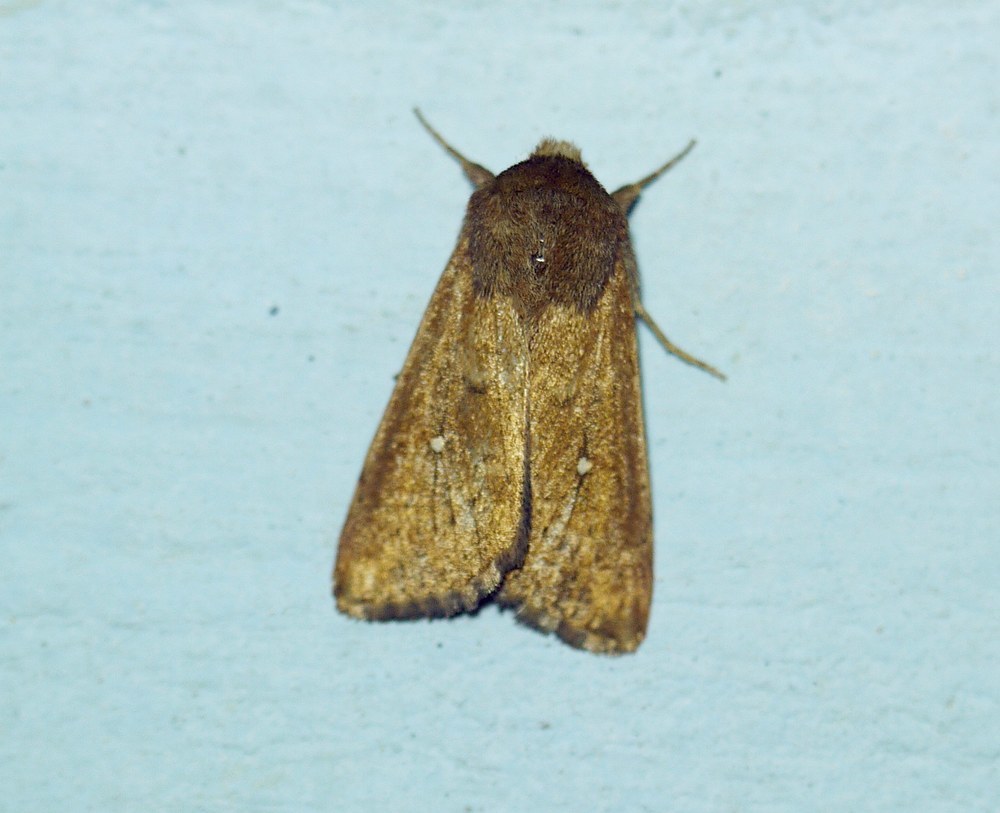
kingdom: Animalia
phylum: Arthropoda
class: Insecta
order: Lepidoptera
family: Noctuidae
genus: Mythimna
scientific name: Mythimna albipuncta
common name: White-point
